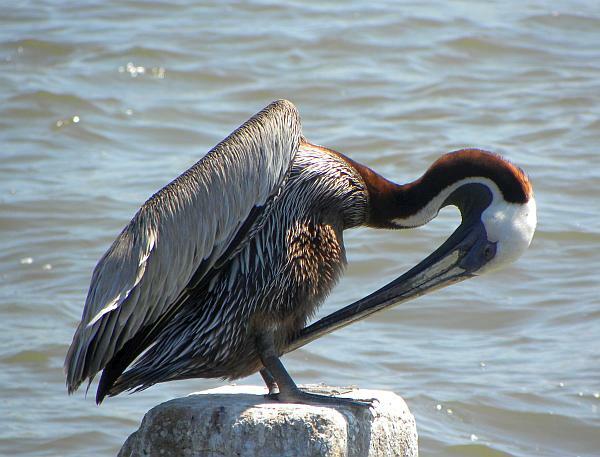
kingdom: Animalia
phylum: Chordata
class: Aves
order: Pelecaniformes
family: Pelecanidae
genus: Pelecanus
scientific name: Pelecanus occidentalis
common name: Brown pelican
